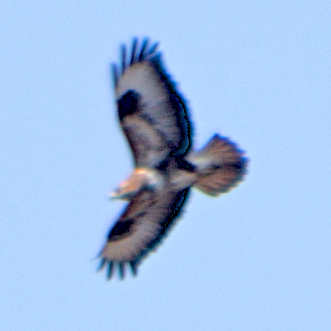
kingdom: Animalia
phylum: Chordata
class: Aves
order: Accipitriformes
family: Accipitridae
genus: Buteo
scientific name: Buteo rufinus
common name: Long-legged buzzard
